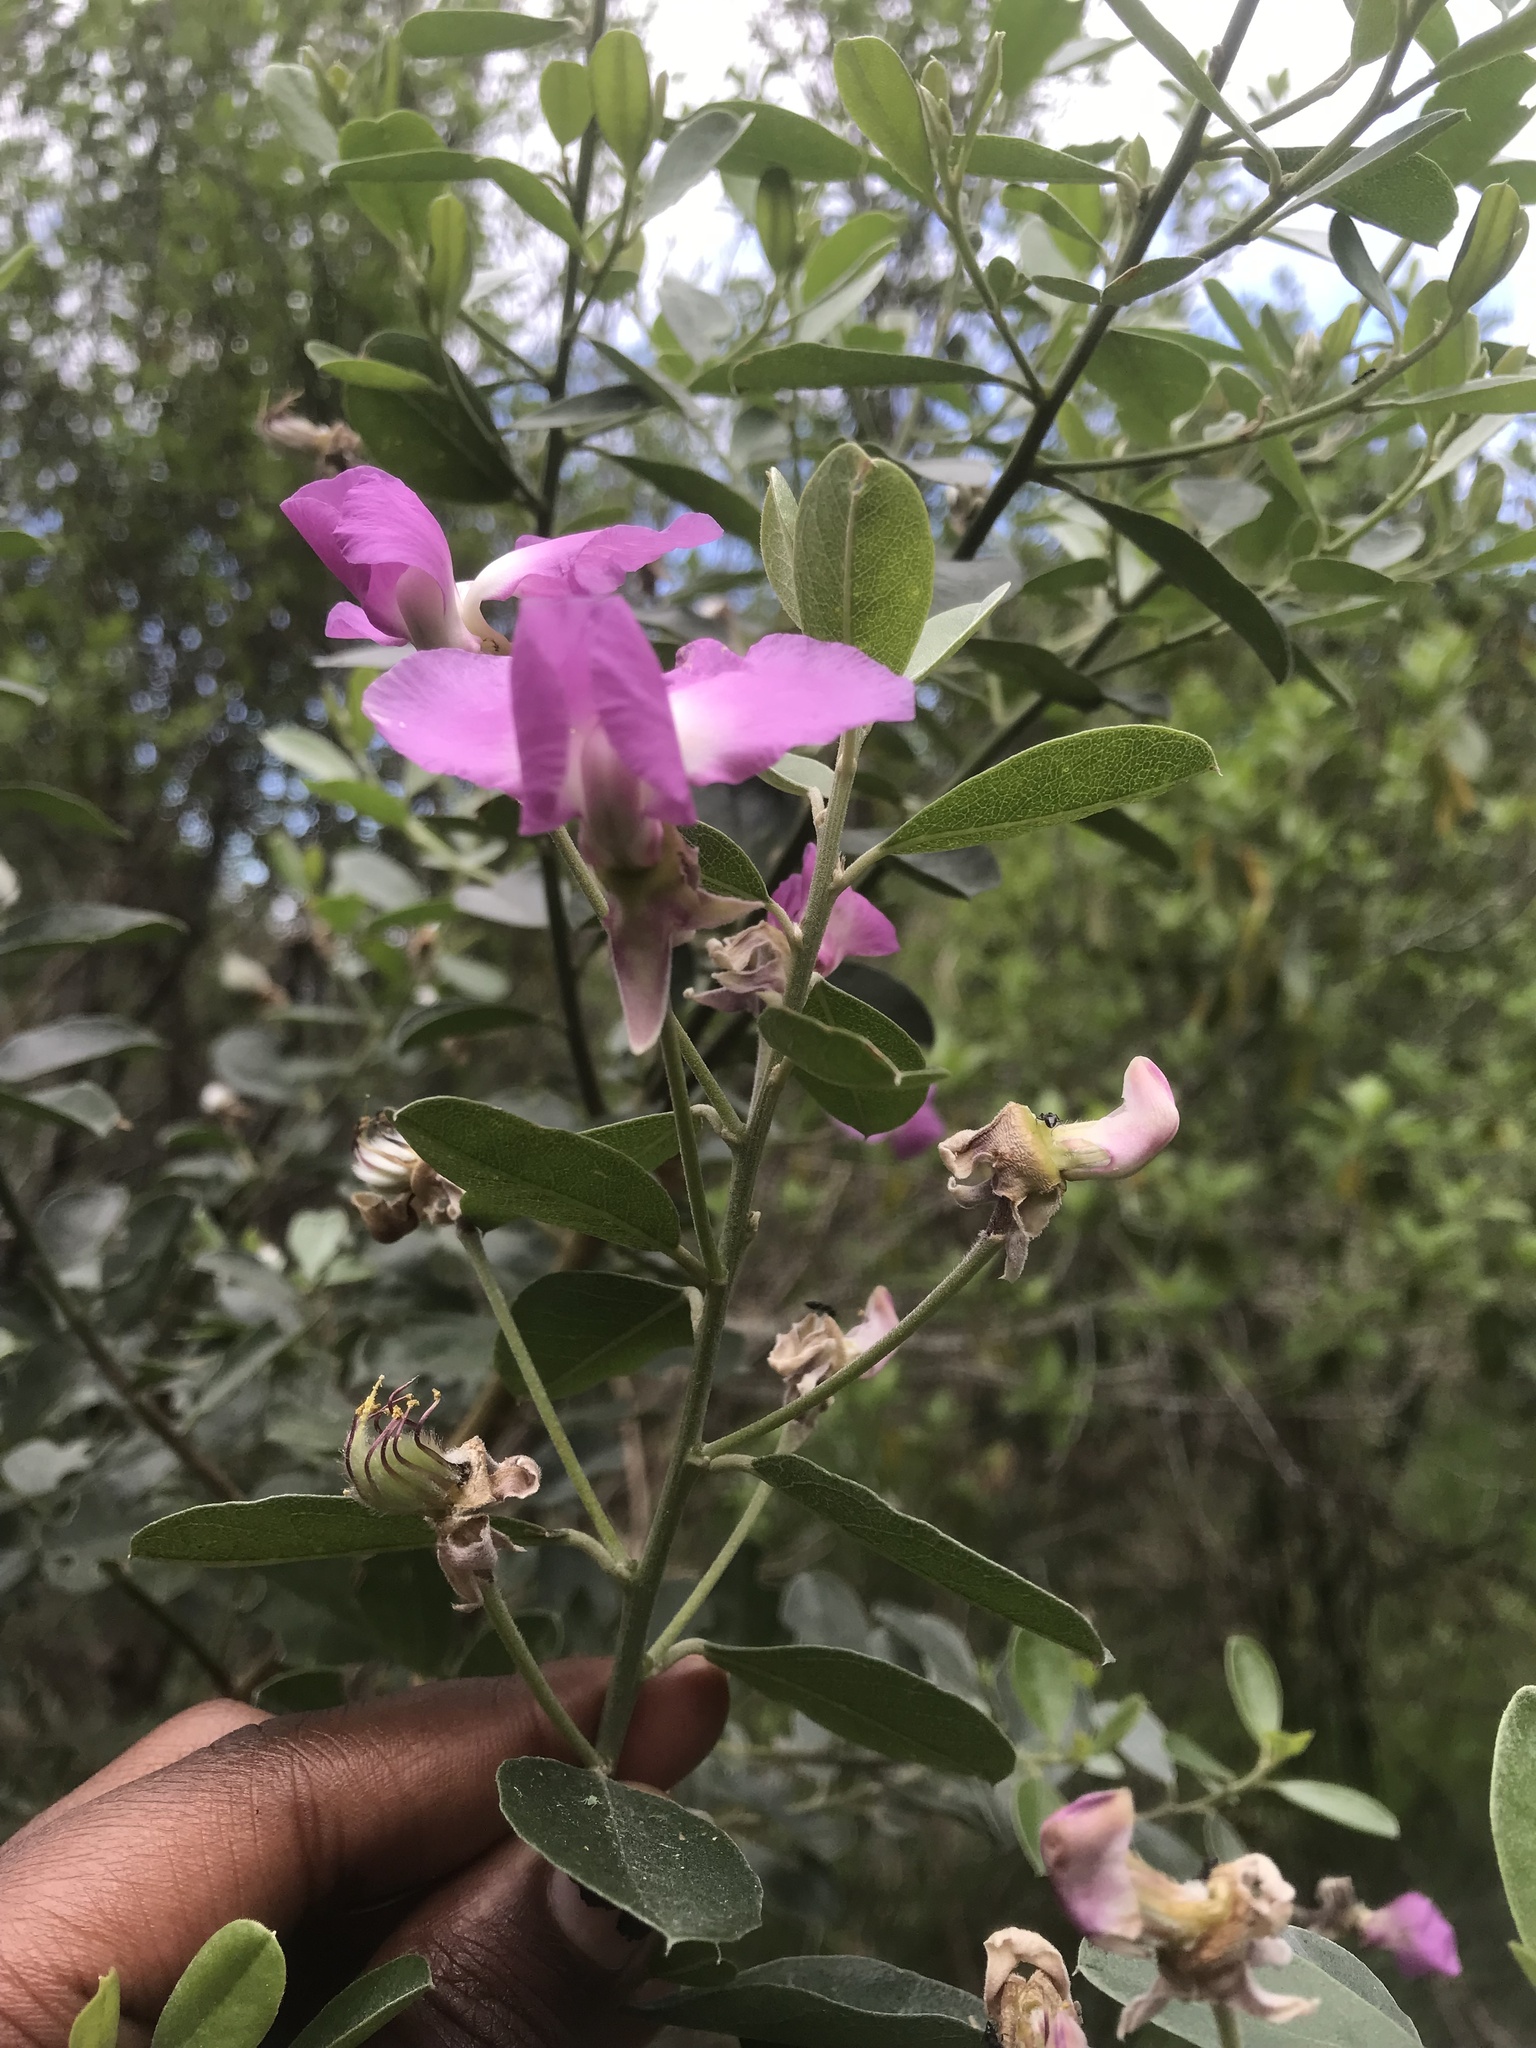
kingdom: Plantae
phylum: Tracheophyta
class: Magnoliopsida
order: Fabales
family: Fabaceae
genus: Podalyria
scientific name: Podalyria calyptrata
